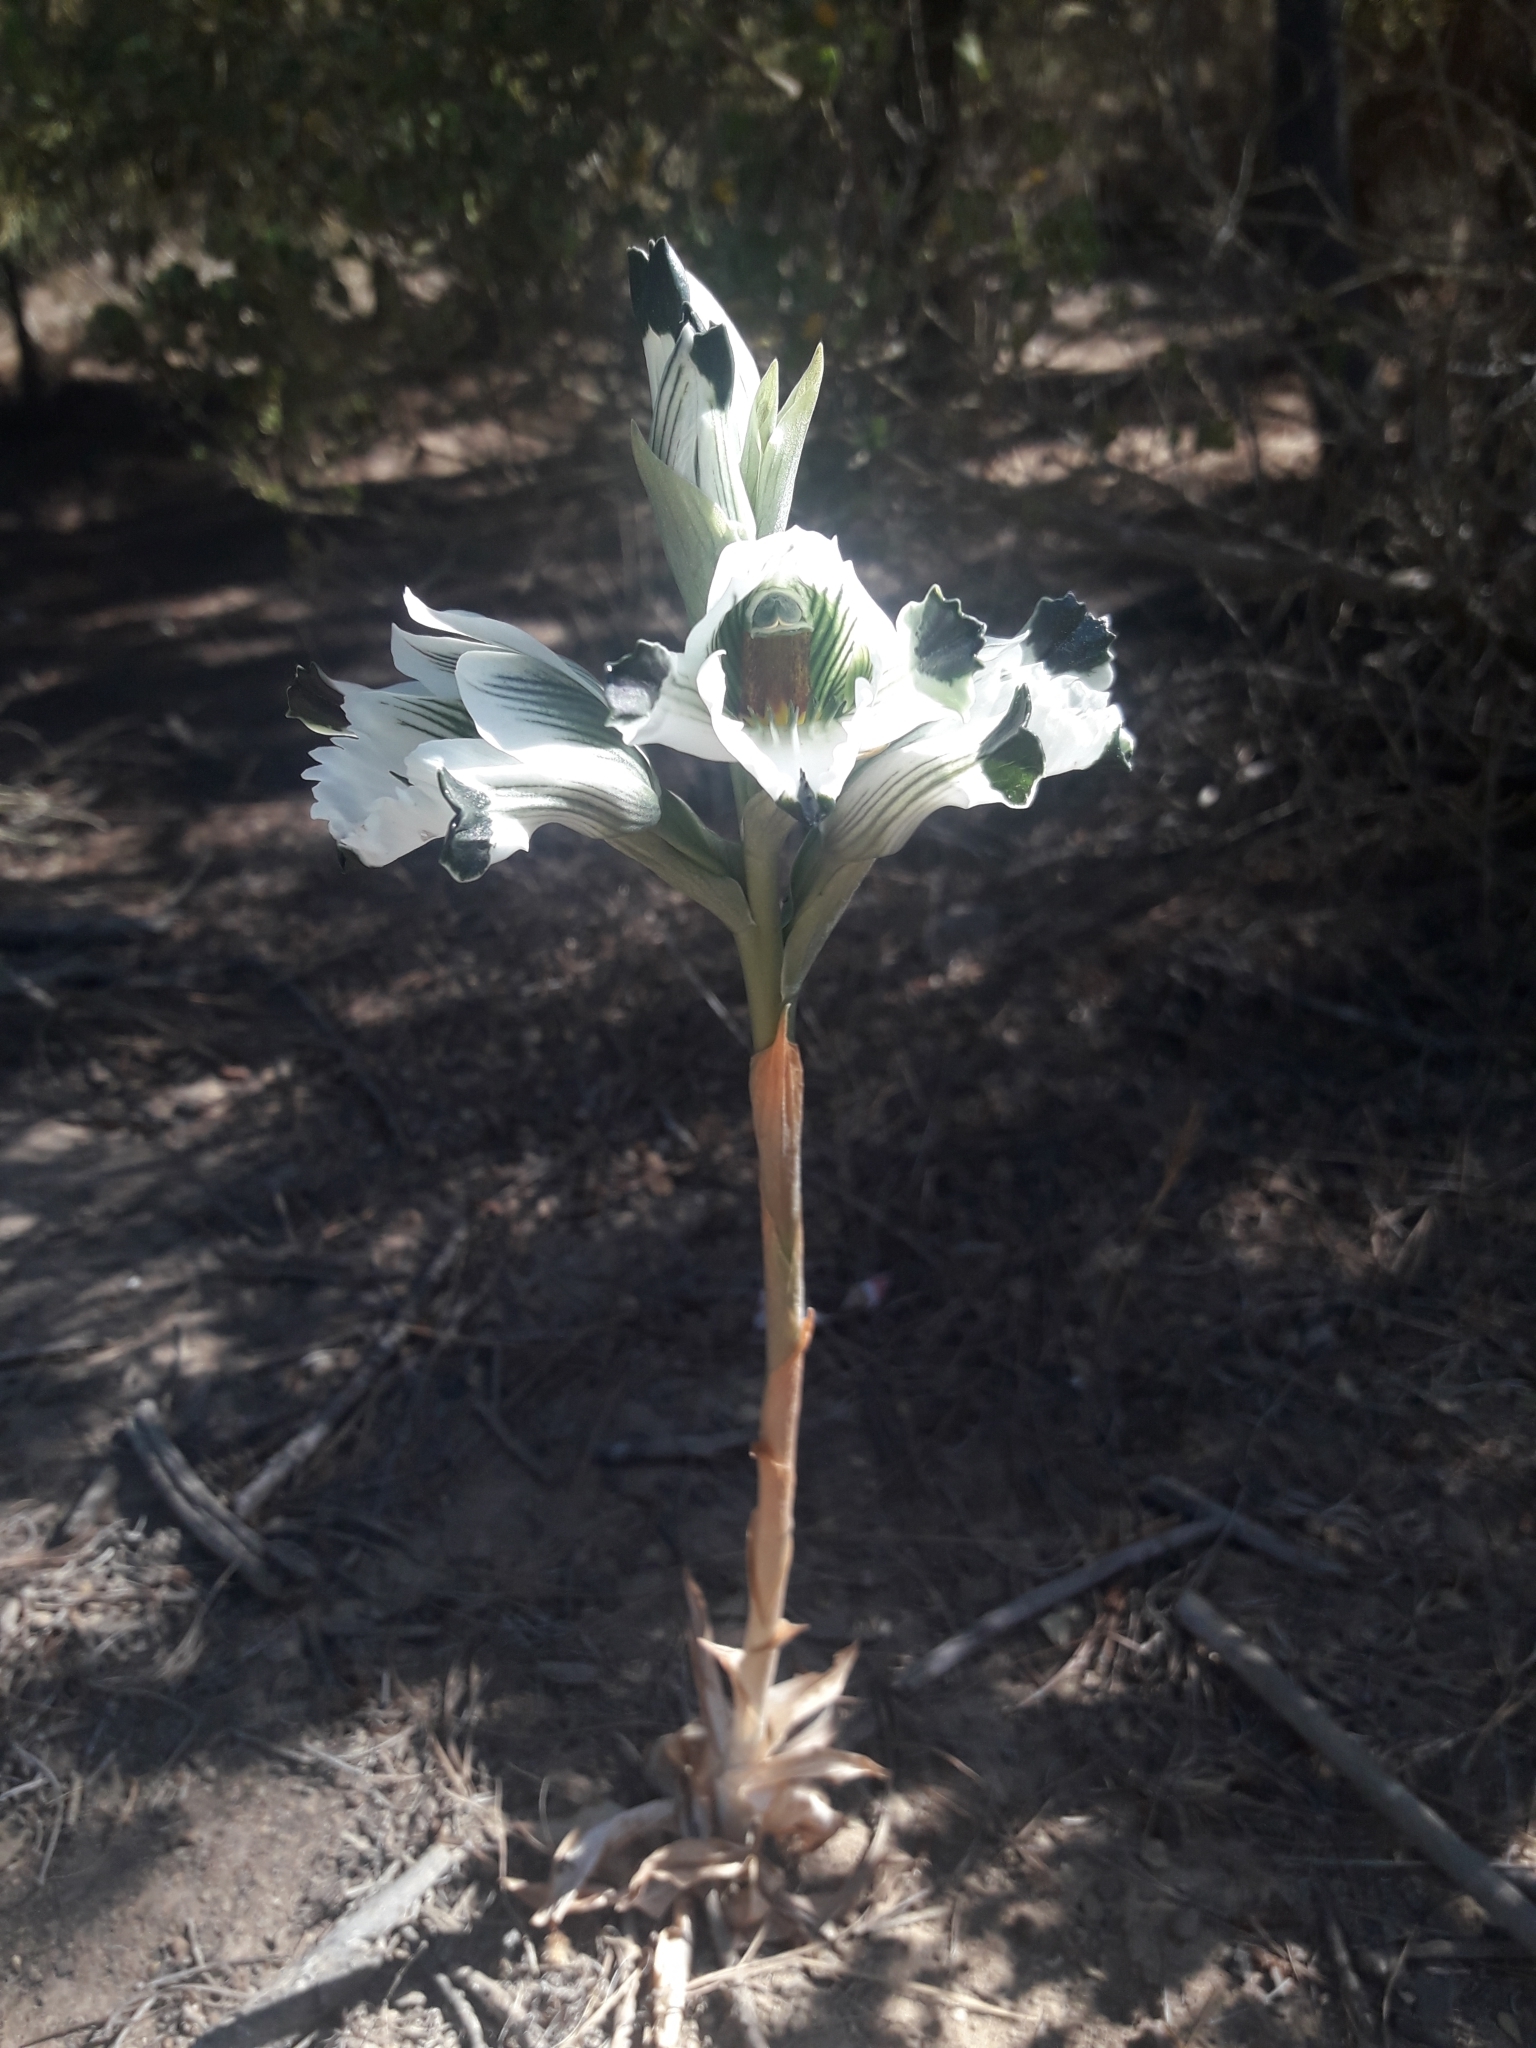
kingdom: Plantae
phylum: Tracheophyta
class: Liliopsida
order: Asparagales
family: Orchidaceae
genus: Chloraea
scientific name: Chloraea bletioides
